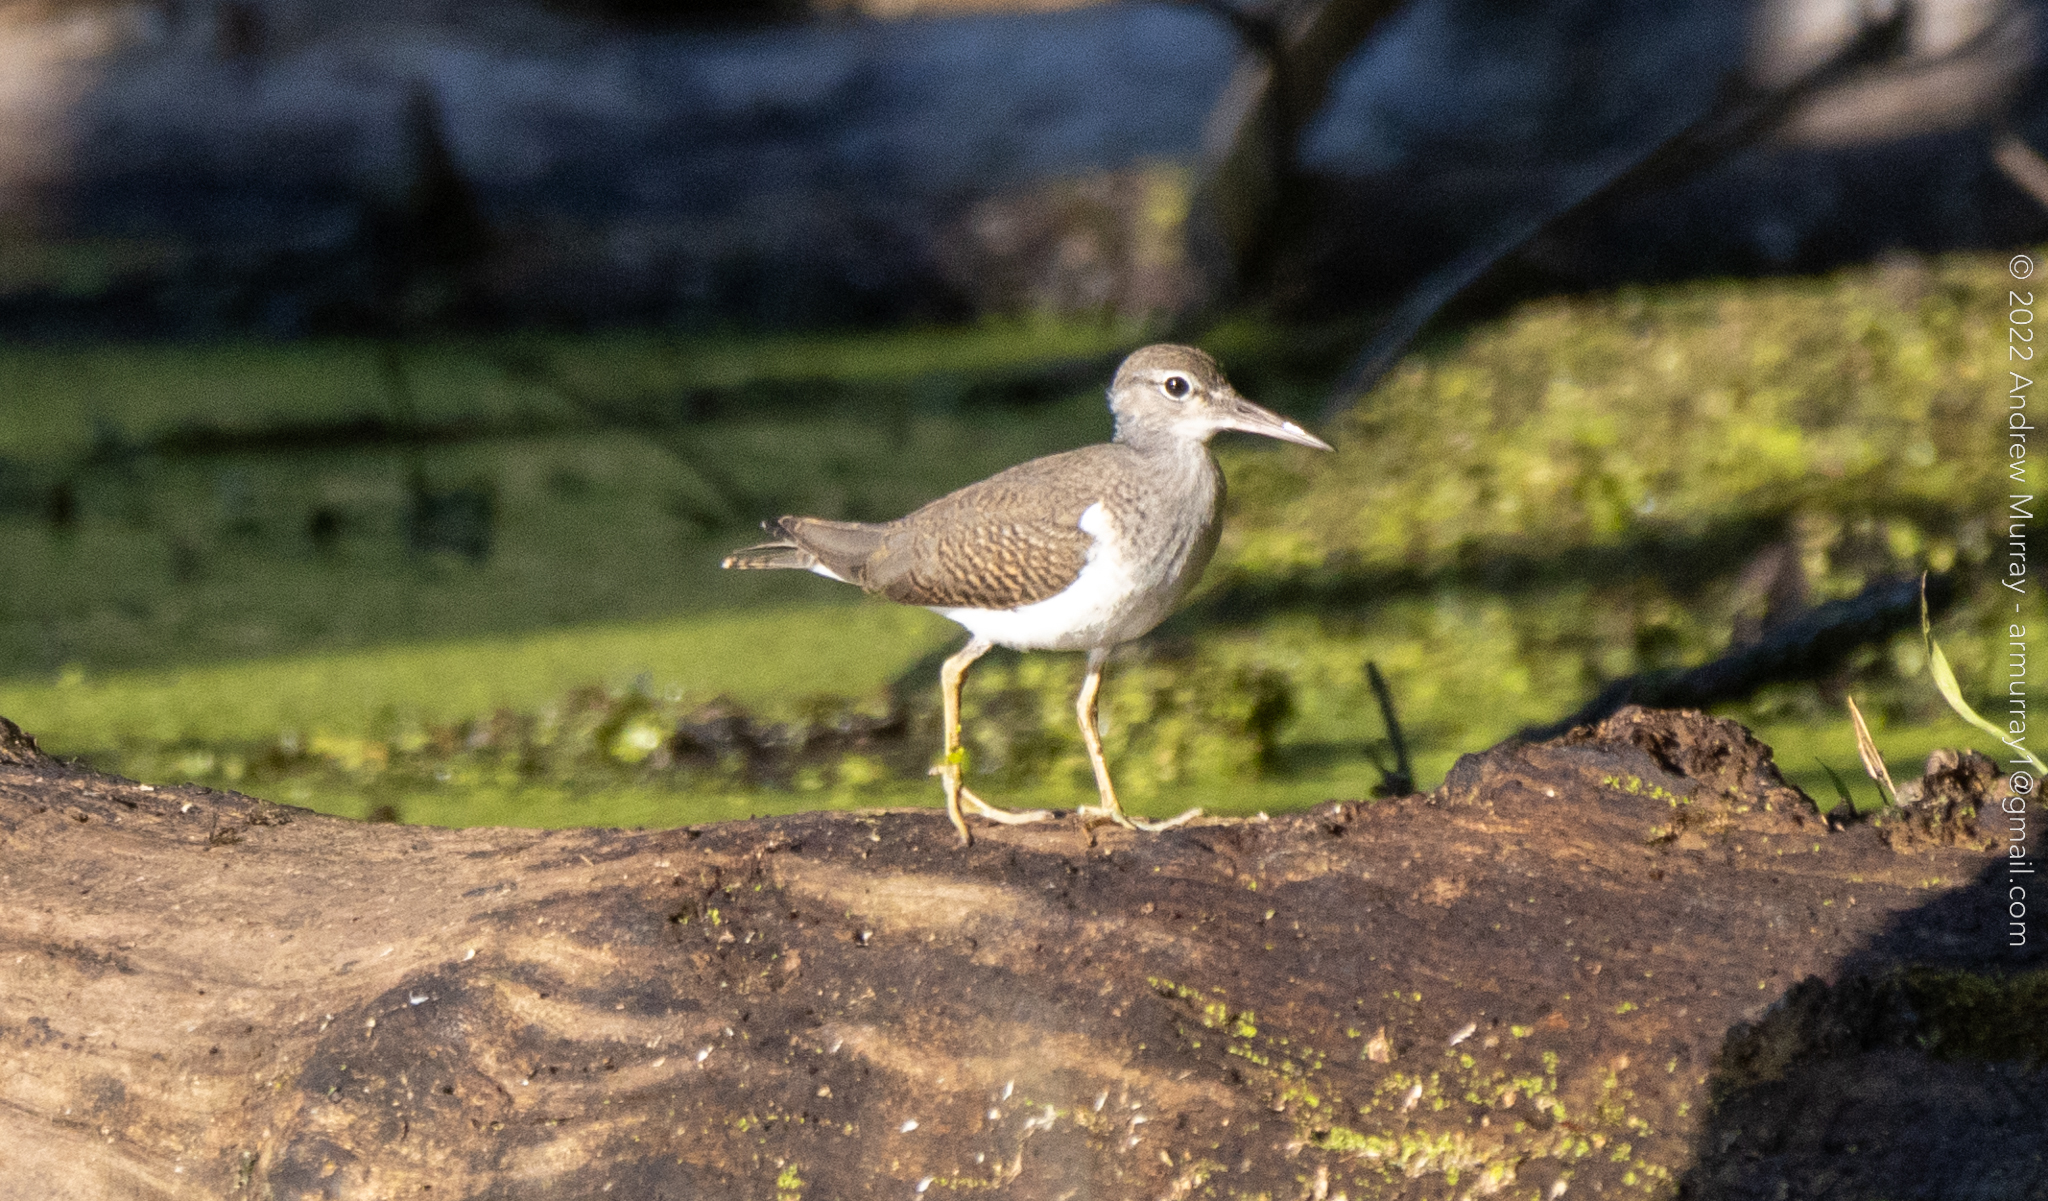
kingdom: Animalia
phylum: Chordata
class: Aves
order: Charadriiformes
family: Scolopacidae
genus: Actitis
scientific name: Actitis macularius
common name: Spotted sandpiper
